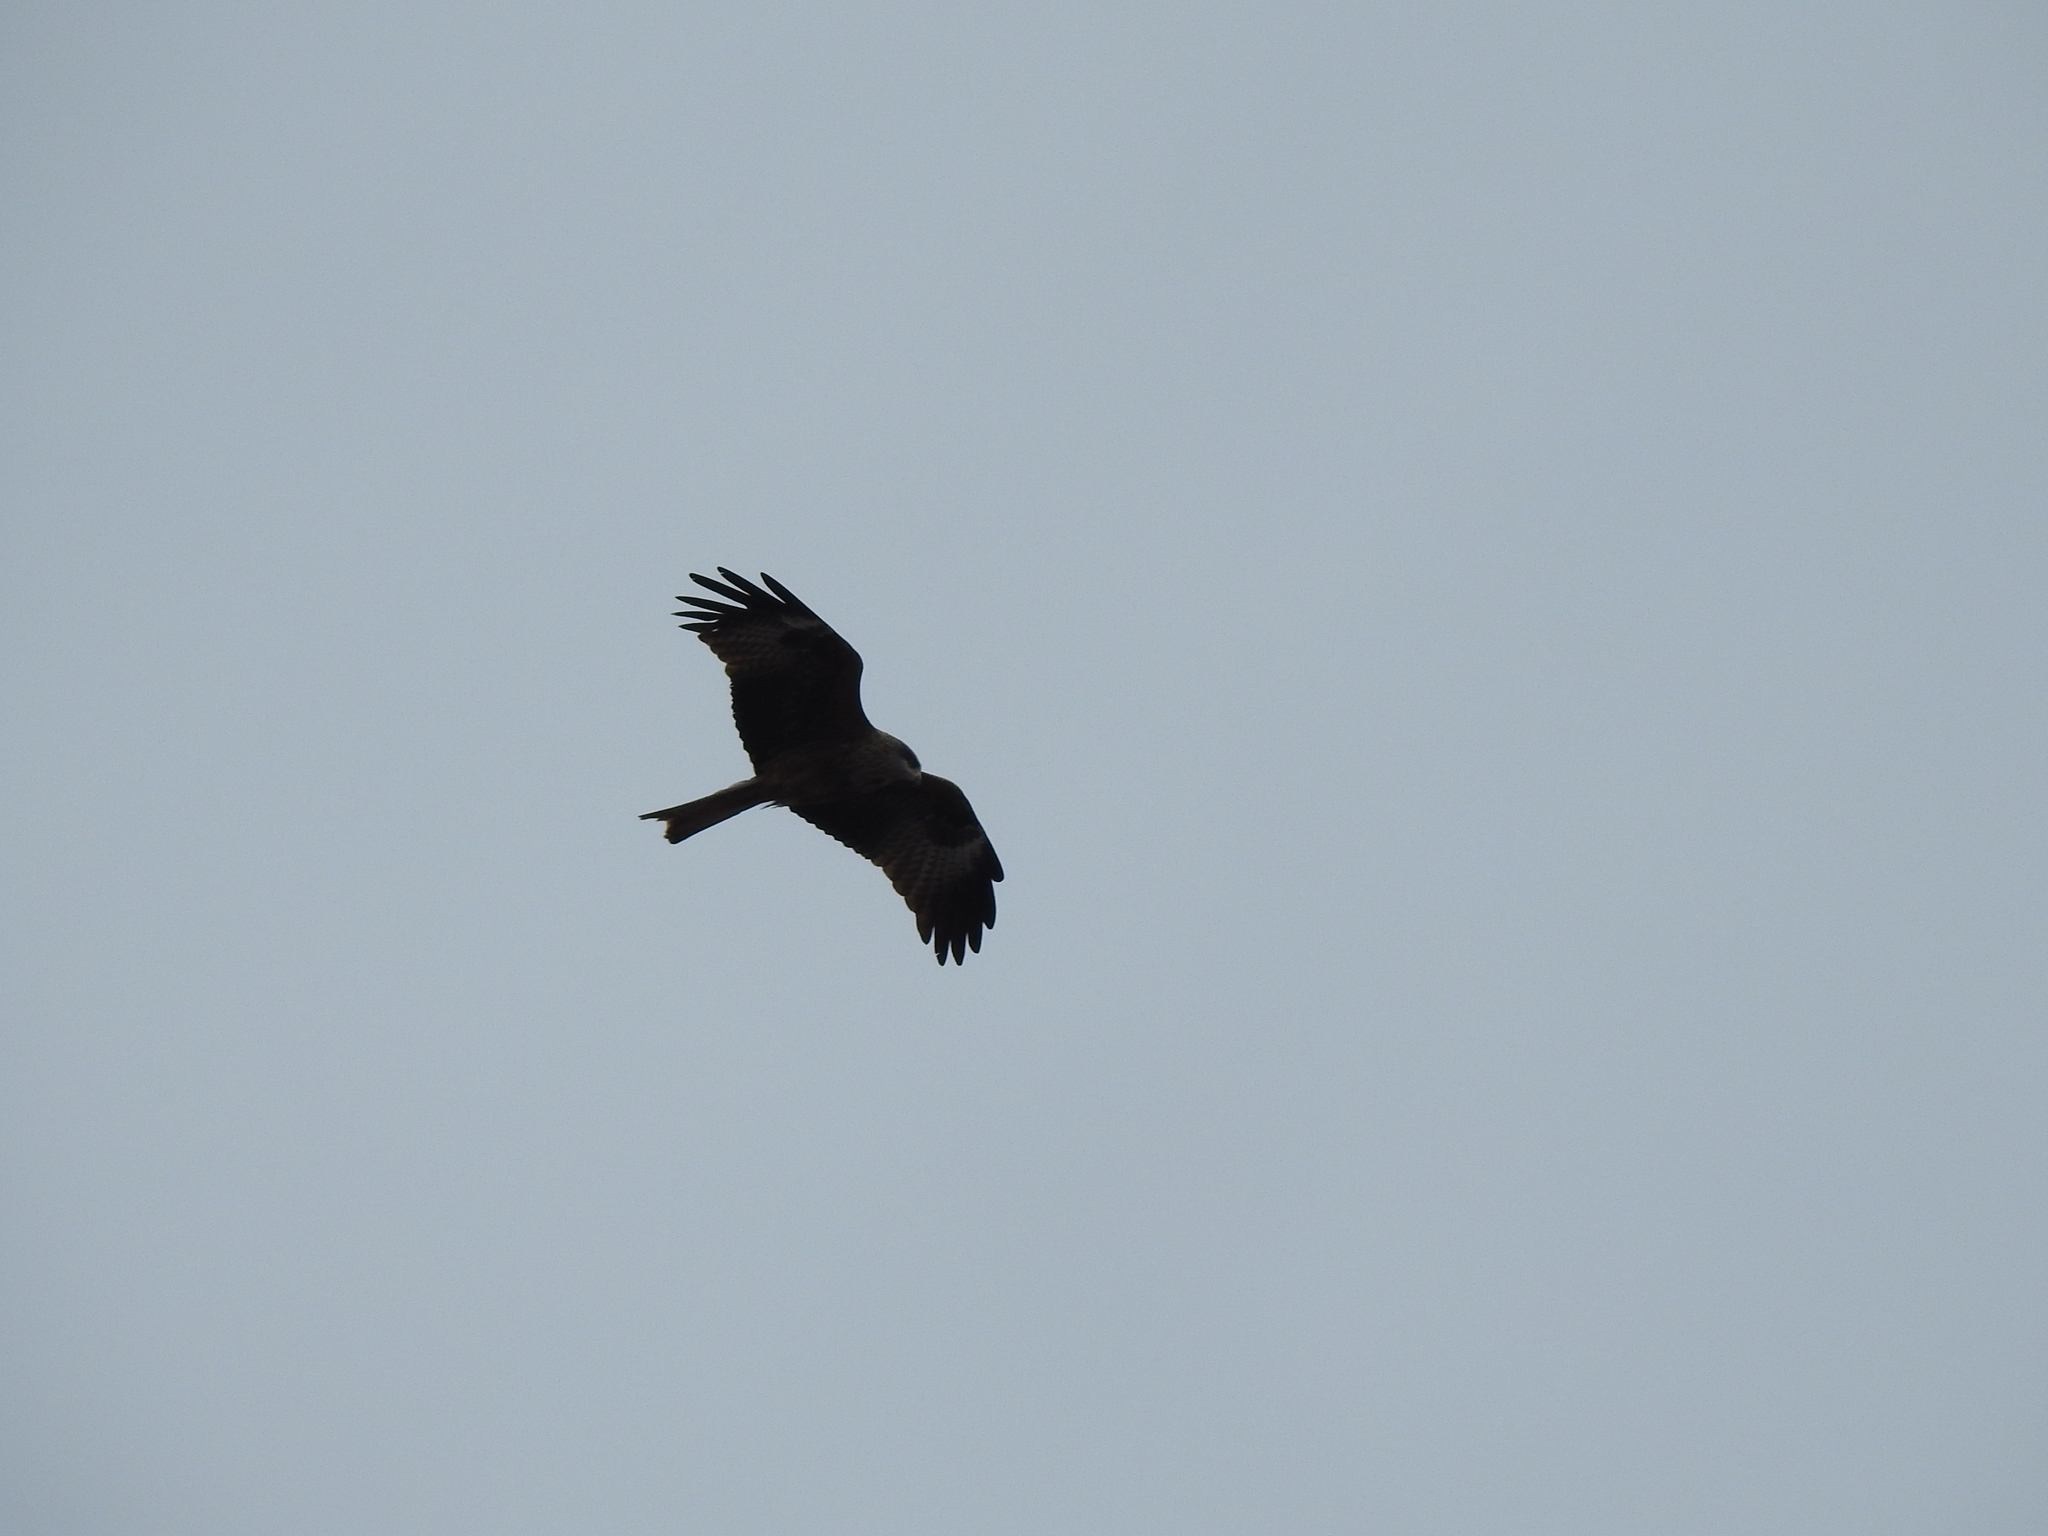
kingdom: Animalia
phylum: Chordata
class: Aves
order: Accipitriformes
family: Accipitridae
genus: Milvus
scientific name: Milvus migrans
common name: Black kite
